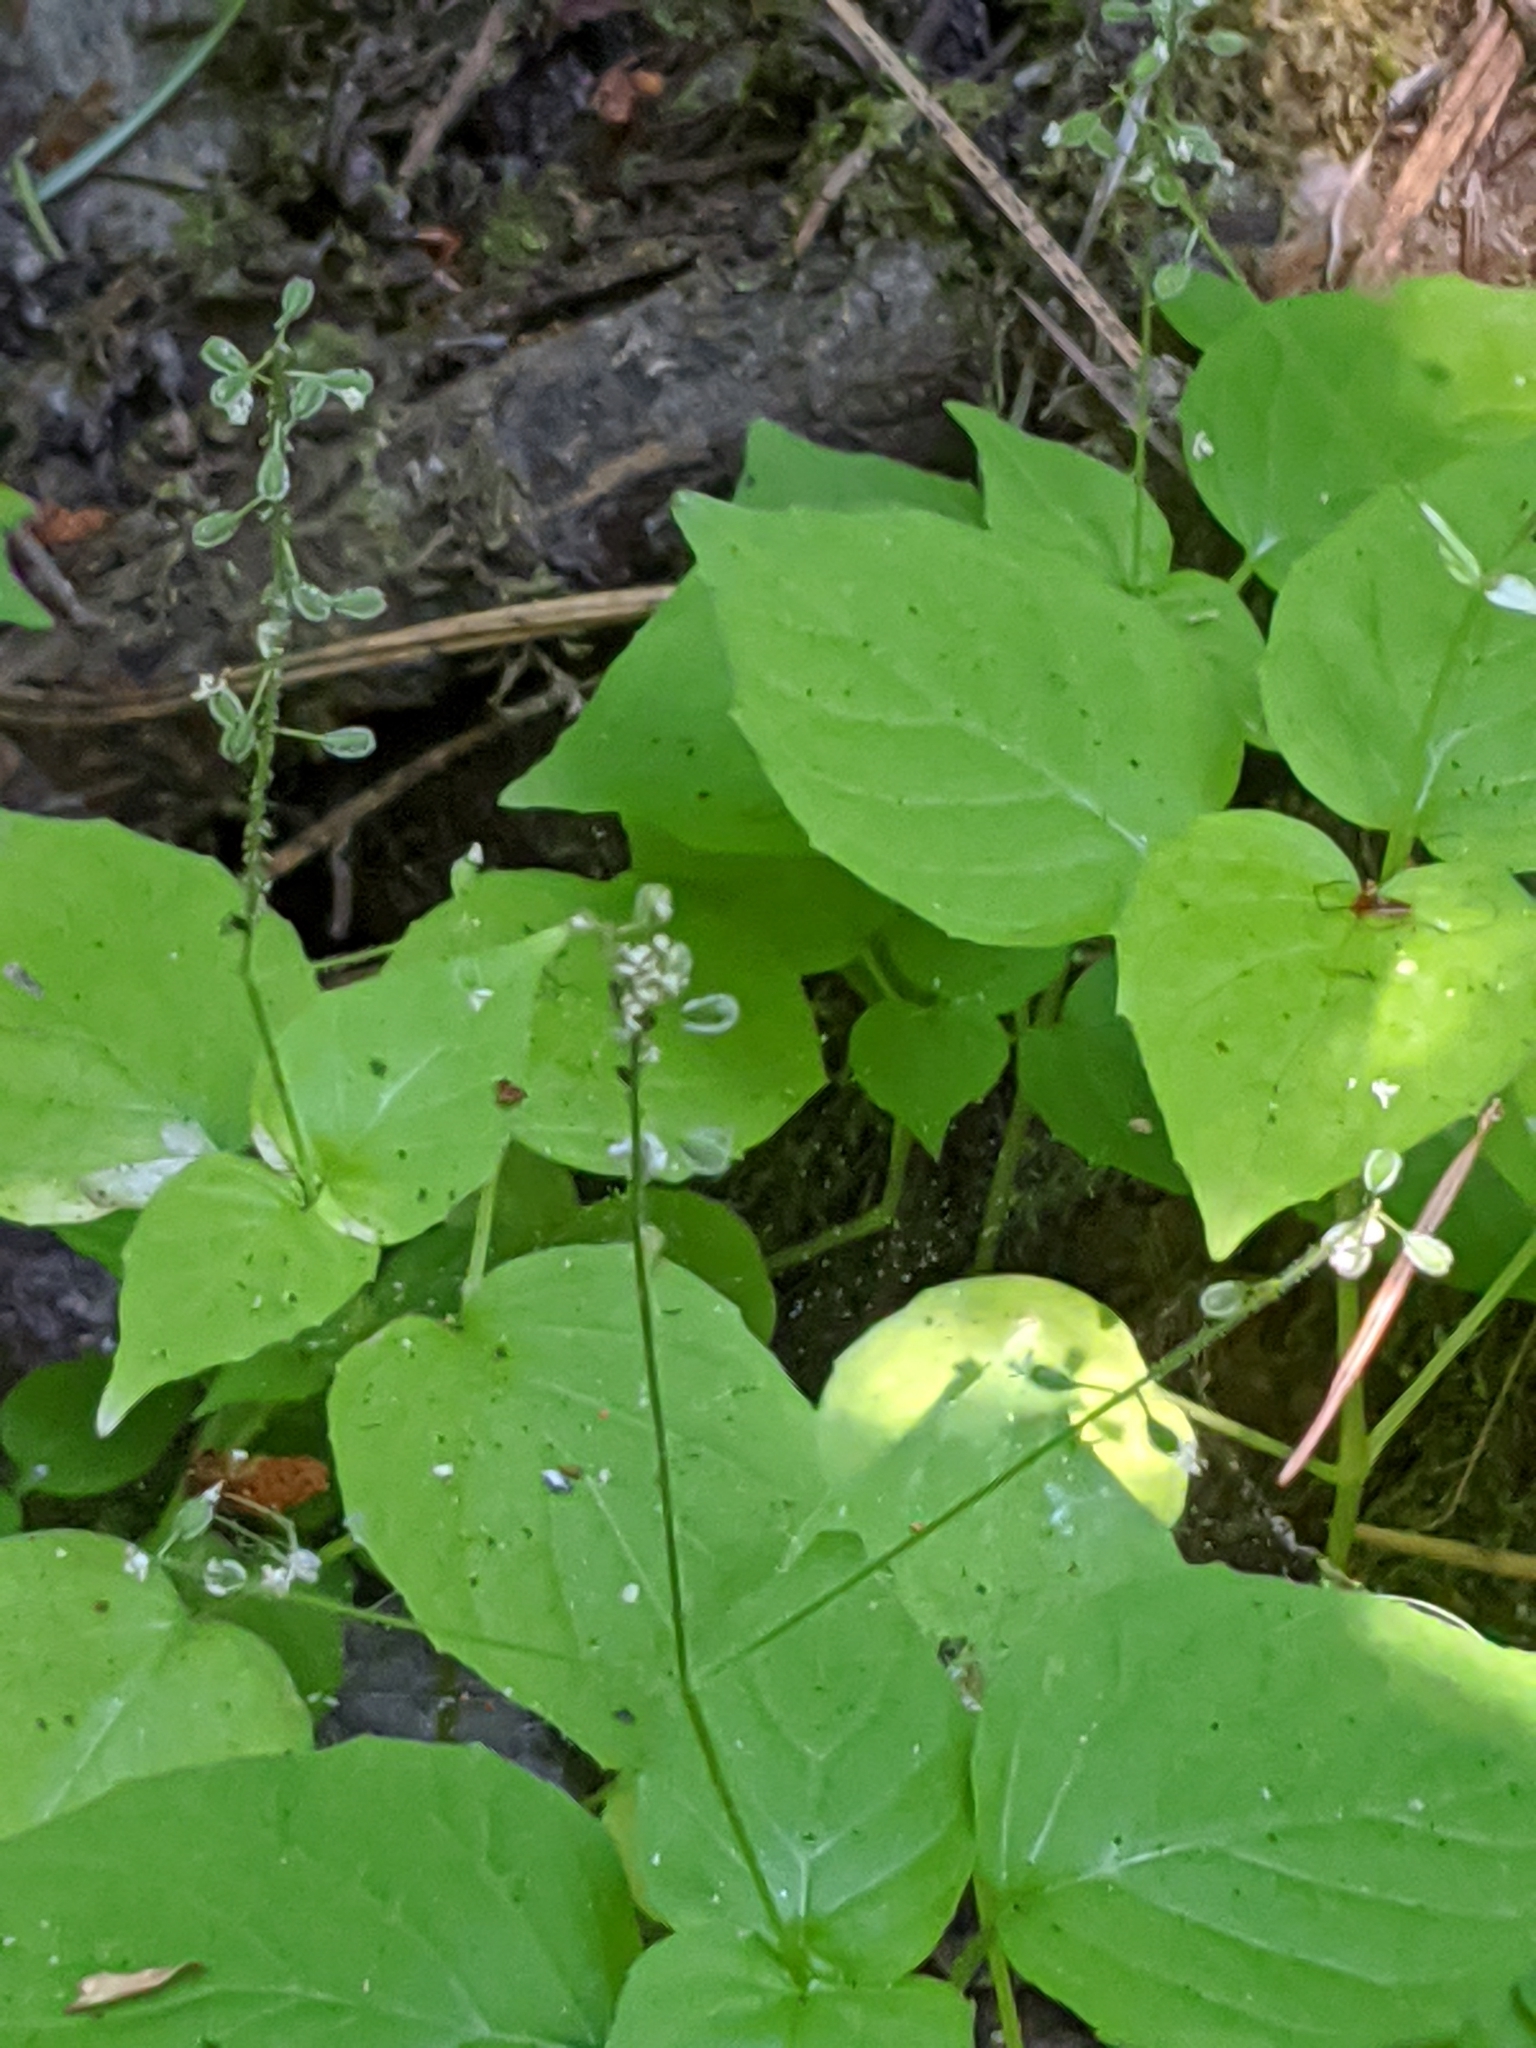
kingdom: Plantae
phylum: Tracheophyta
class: Magnoliopsida
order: Myrtales
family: Onagraceae
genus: Circaea
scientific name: Circaea alpina
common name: Alpine enchanter's-nightshade
